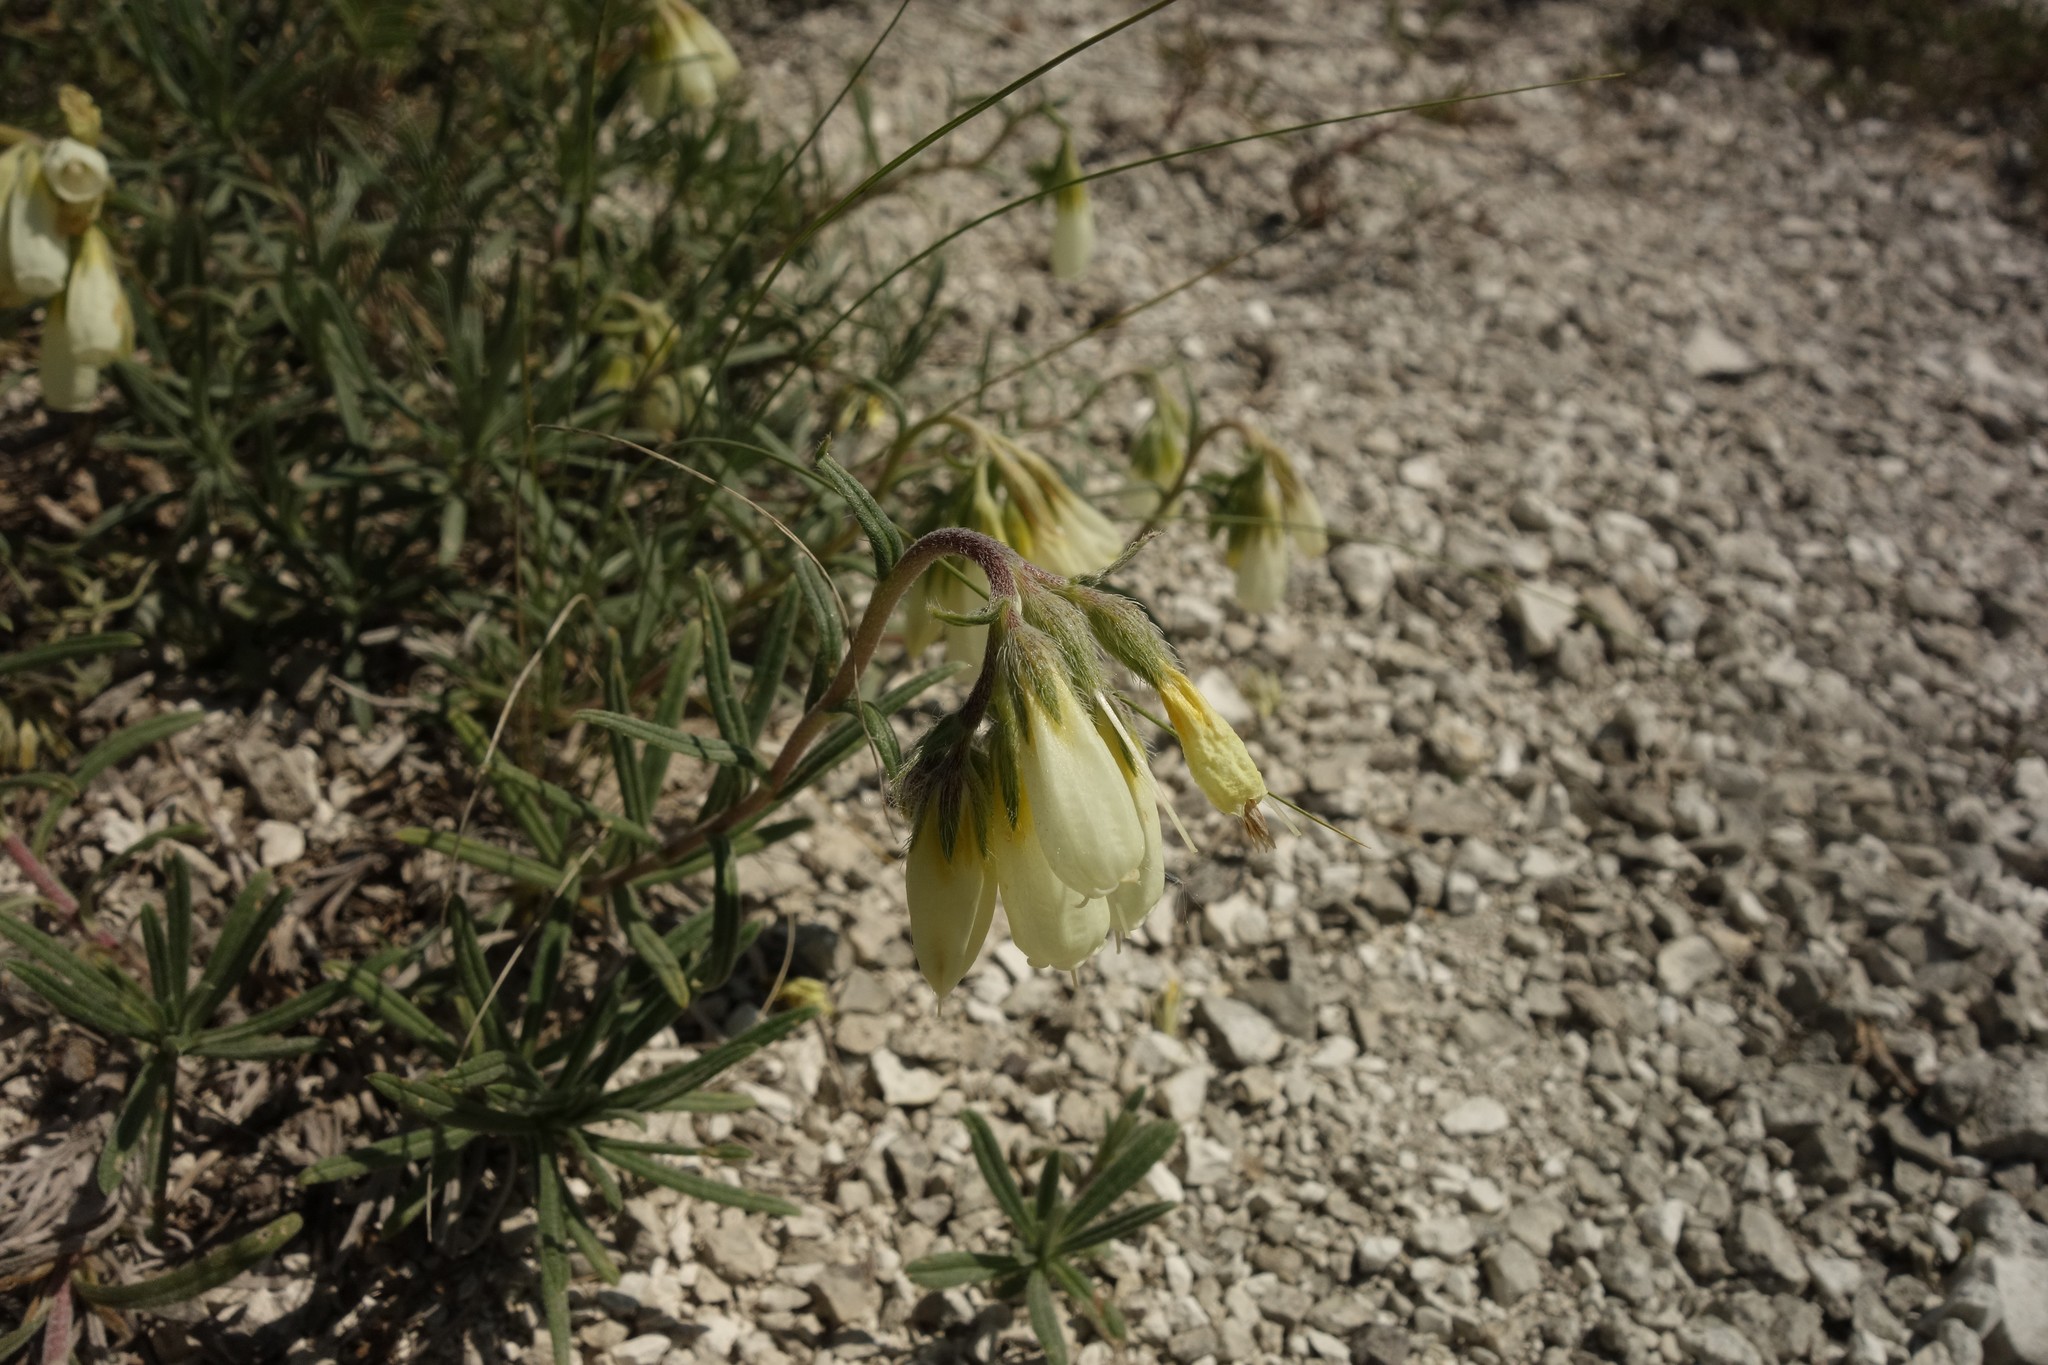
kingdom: Plantae
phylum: Tracheophyta
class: Magnoliopsida
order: Boraginales
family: Boraginaceae
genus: Onosma
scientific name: Onosma simplicissima
